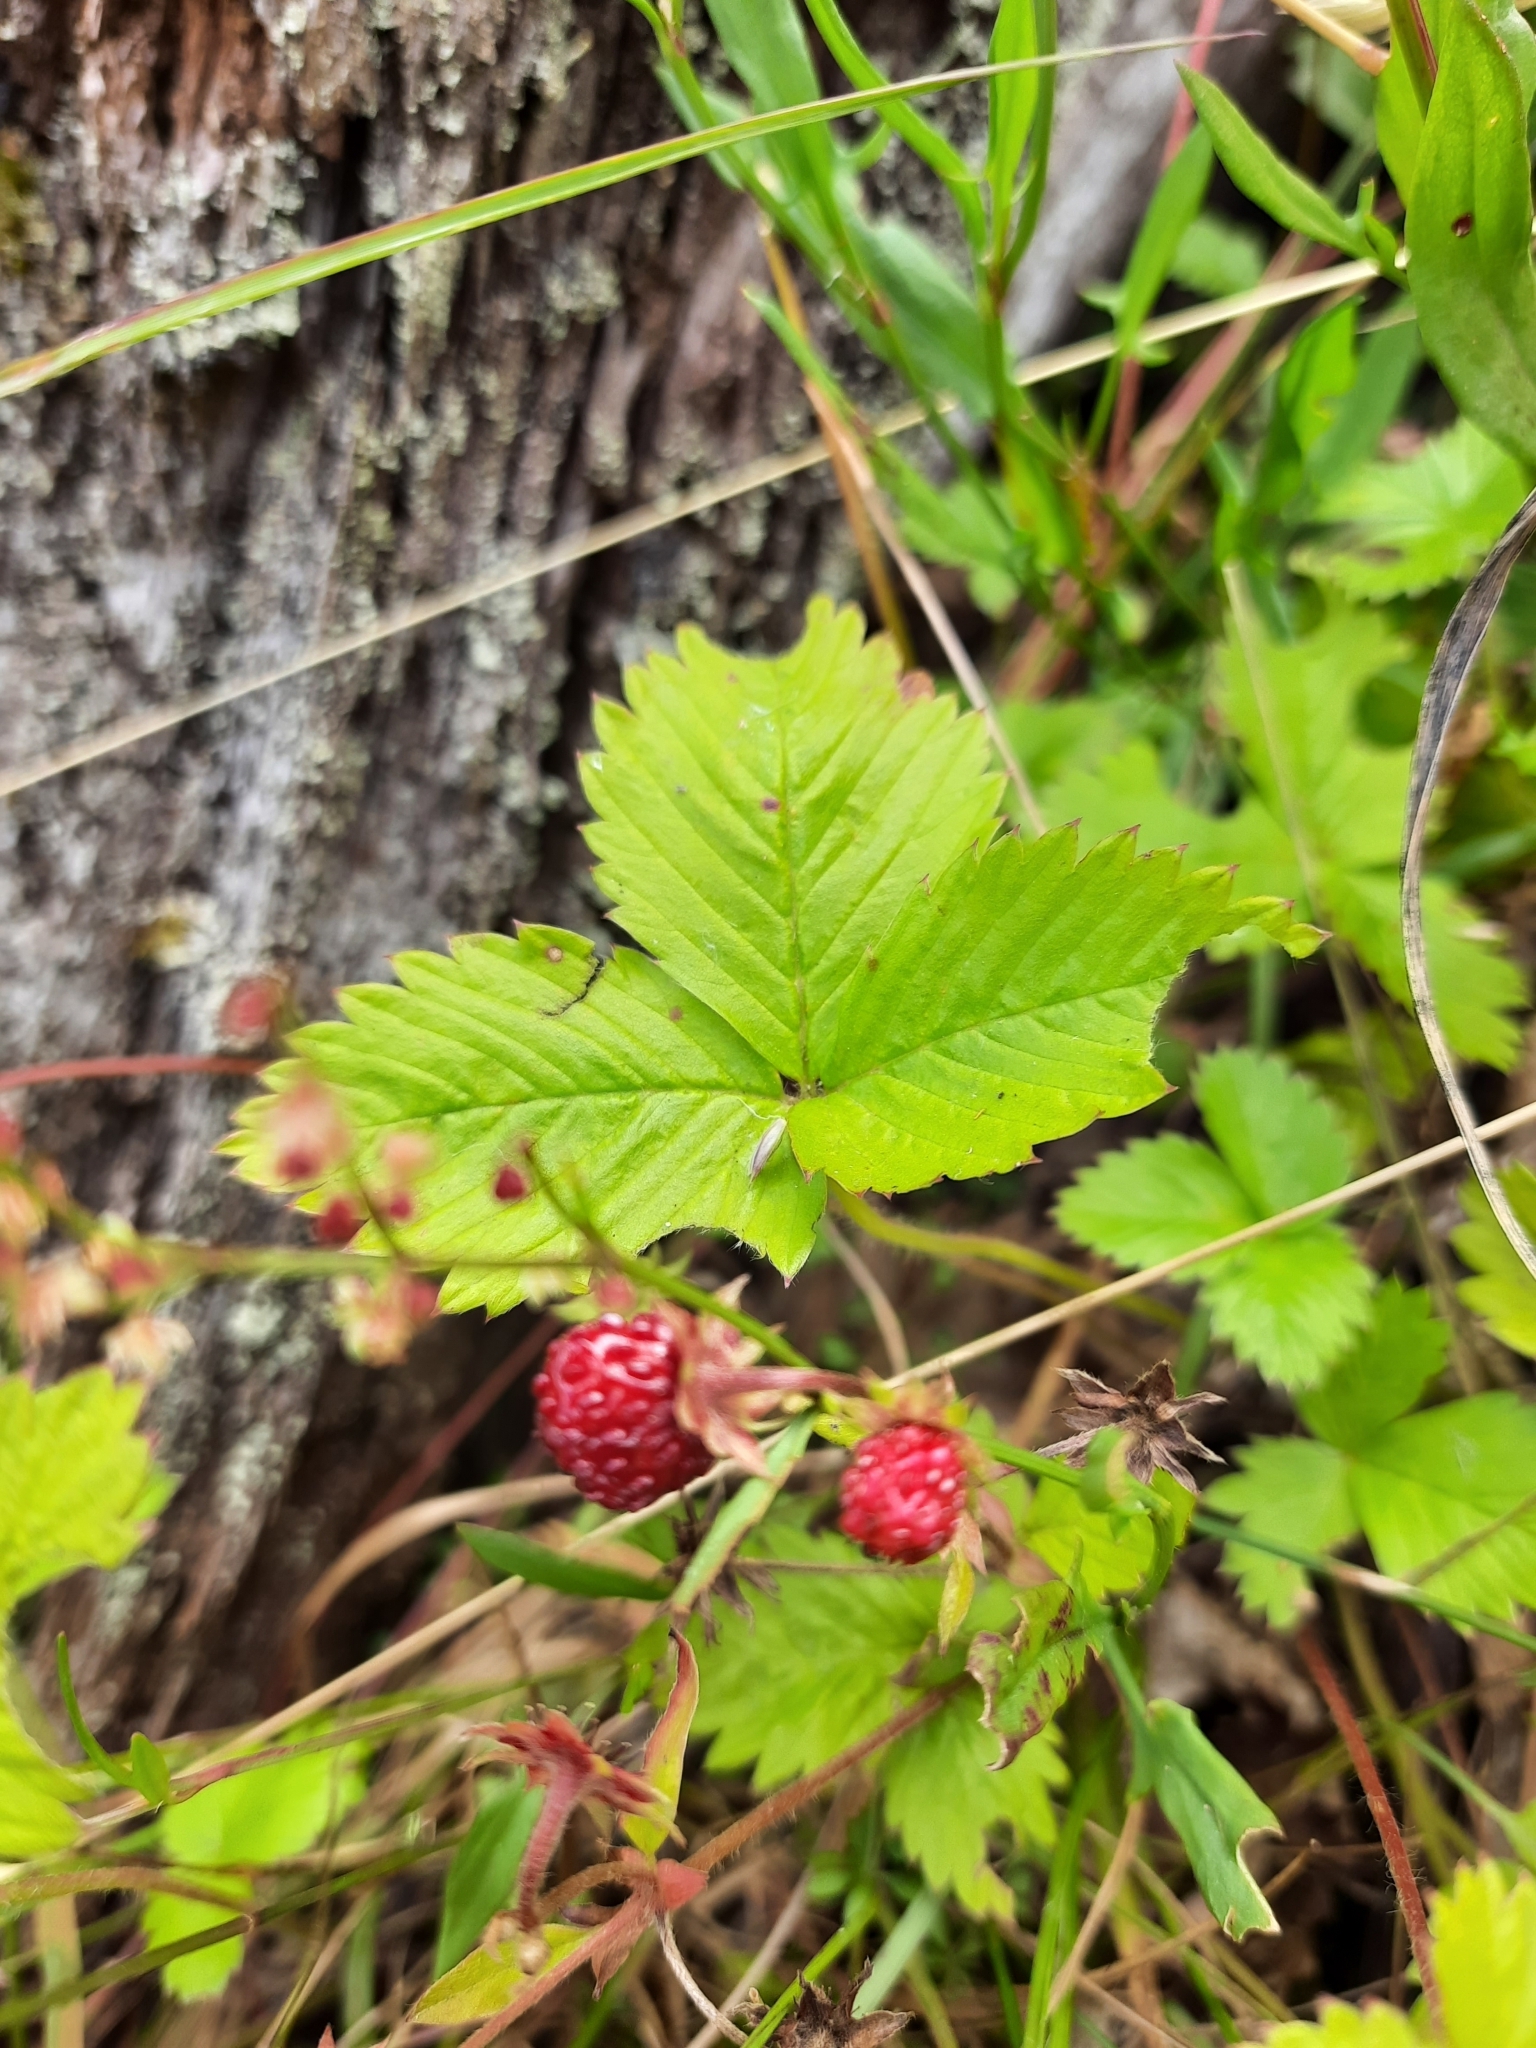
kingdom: Plantae
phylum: Tracheophyta
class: Magnoliopsida
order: Rosales
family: Rosaceae
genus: Fragaria
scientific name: Fragaria vesca
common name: Wild strawberry
